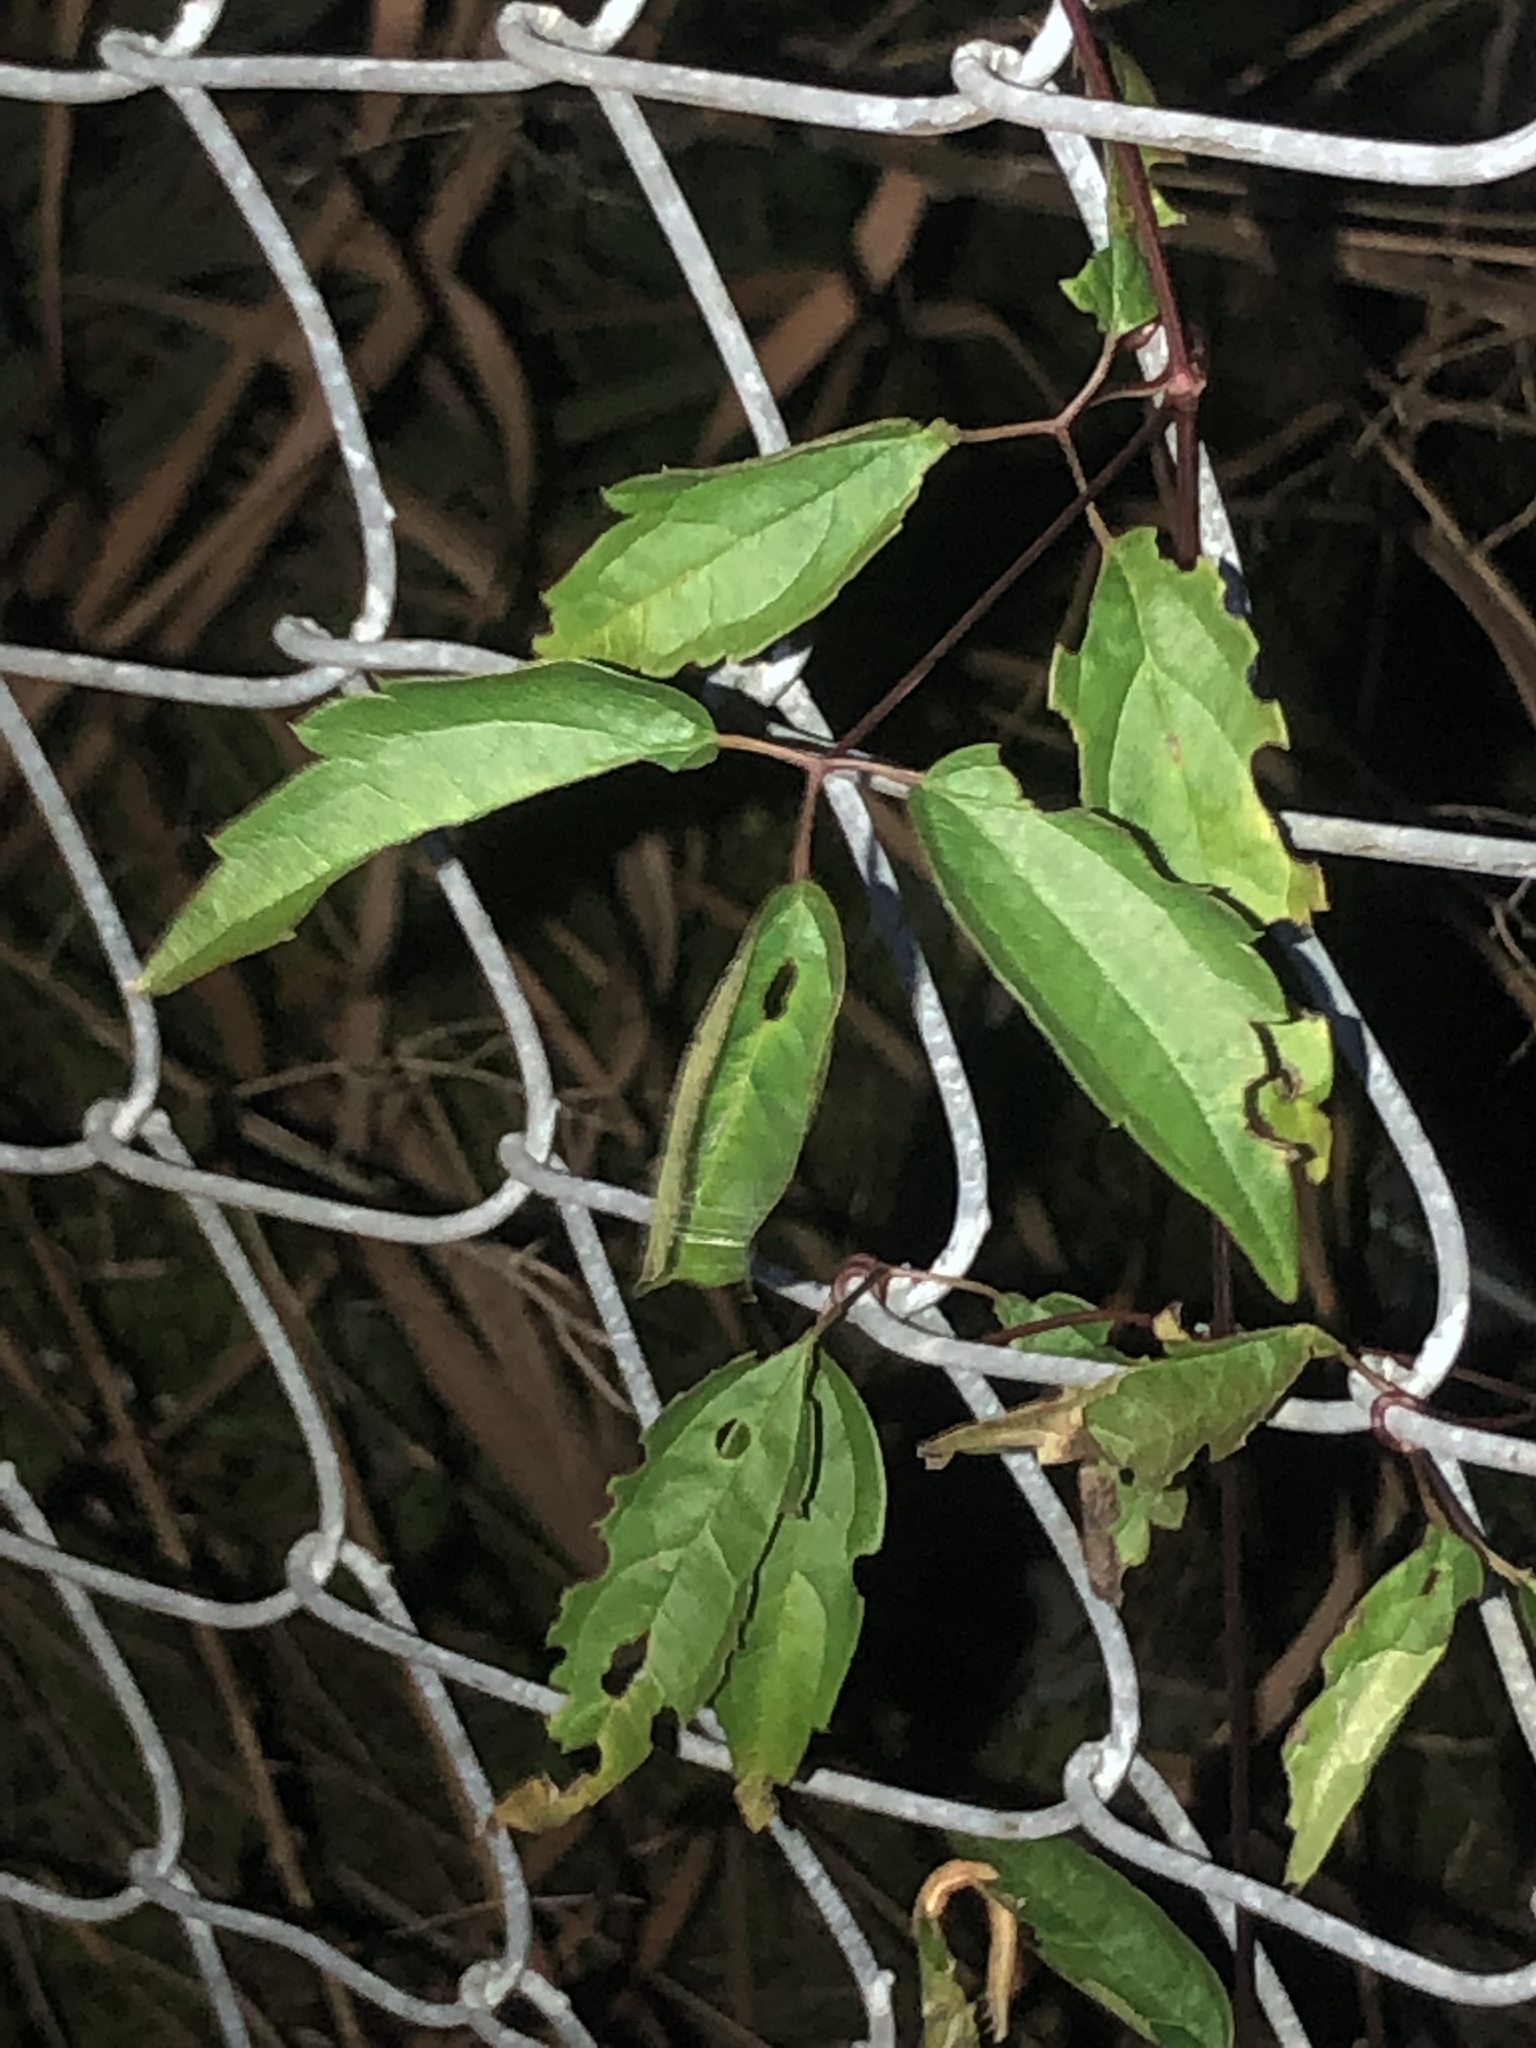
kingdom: Plantae
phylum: Tracheophyta
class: Magnoliopsida
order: Ranunculales
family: Ranunculaceae
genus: Clematis
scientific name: Clematis virginiana
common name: Virgin's-bower
